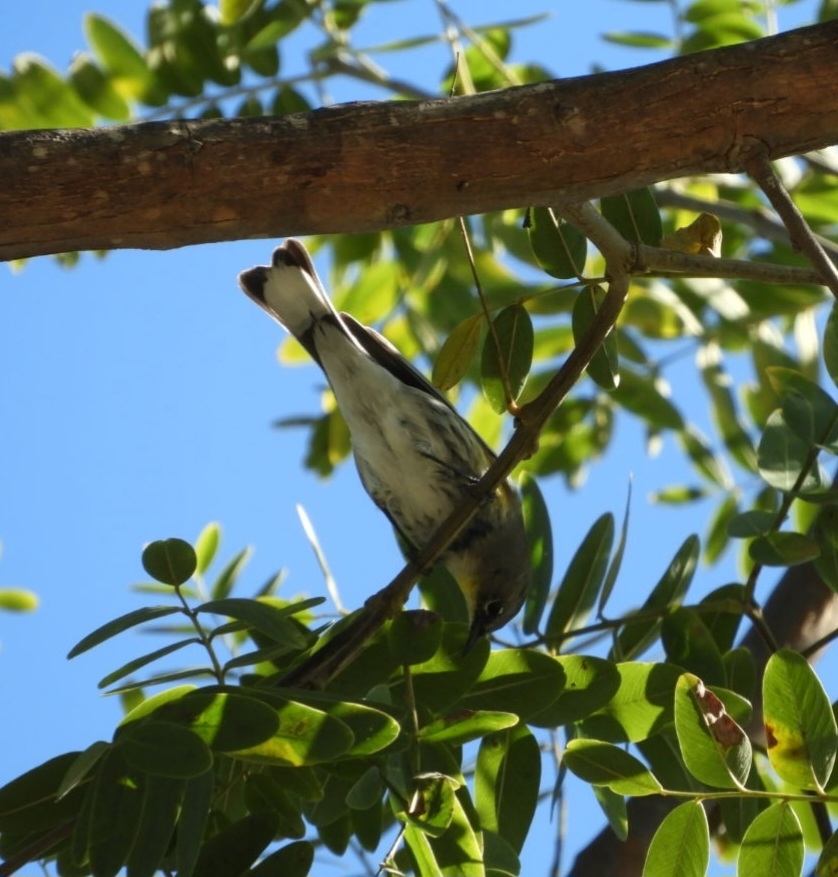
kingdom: Animalia
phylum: Chordata
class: Aves
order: Passeriformes
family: Parulidae
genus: Setophaga
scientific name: Setophaga coronata
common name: Myrtle warbler
